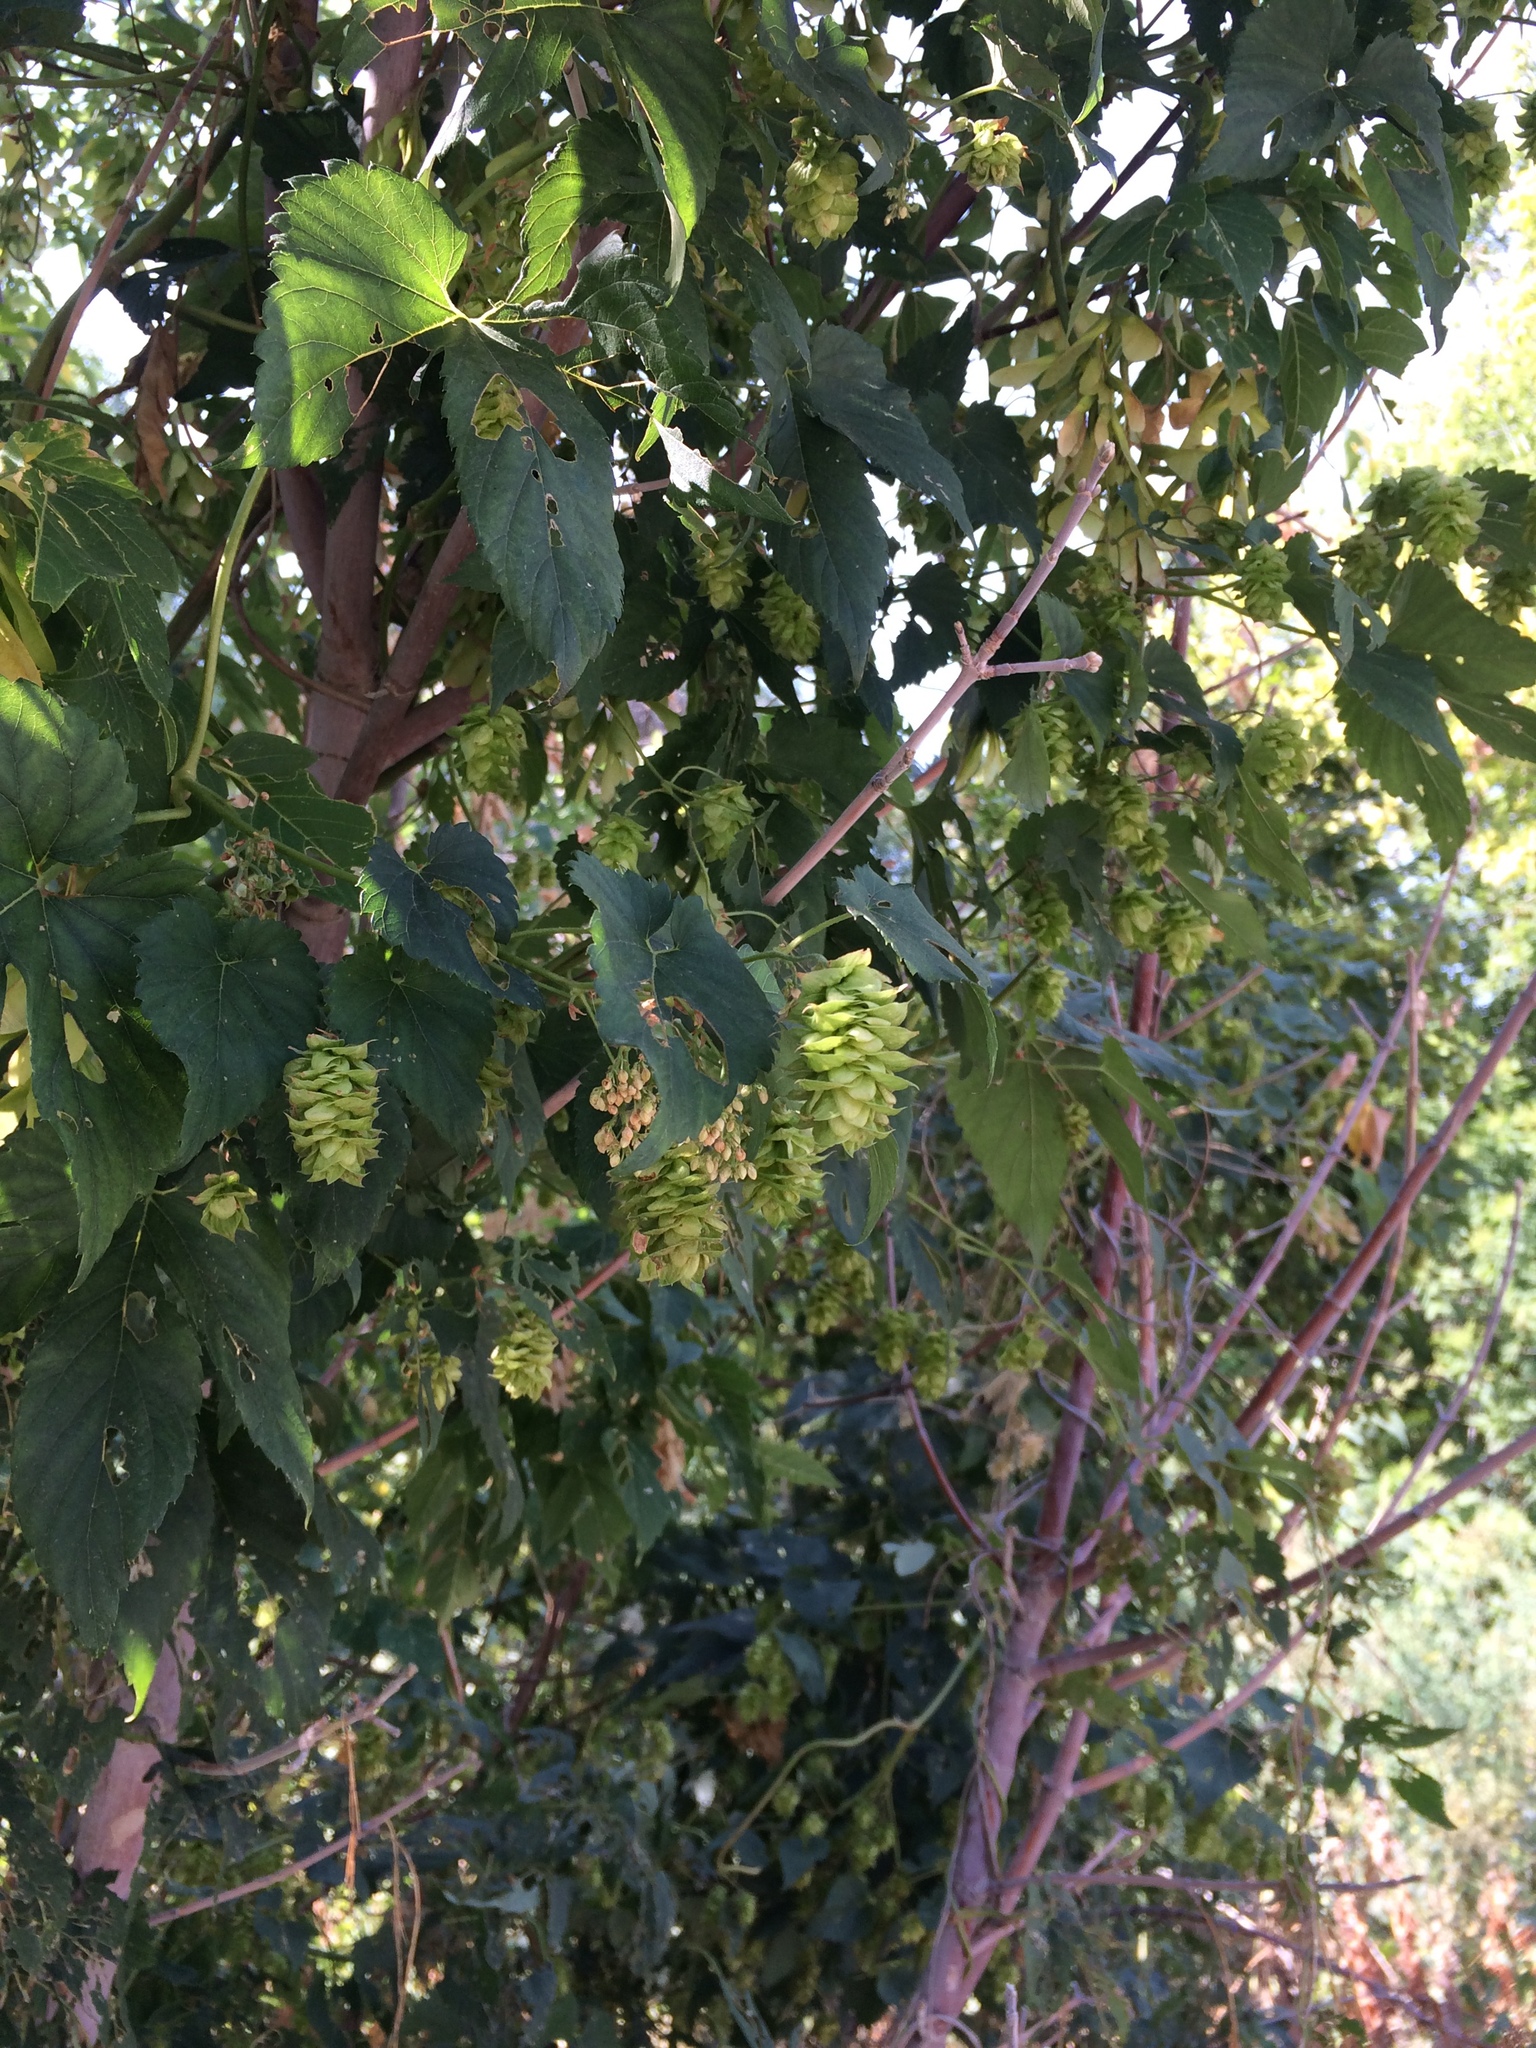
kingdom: Plantae
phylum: Tracheophyta
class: Magnoliopsida
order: Rosales
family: Cannabaceae
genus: Humulus
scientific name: Humulus lupulus
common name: Hop
